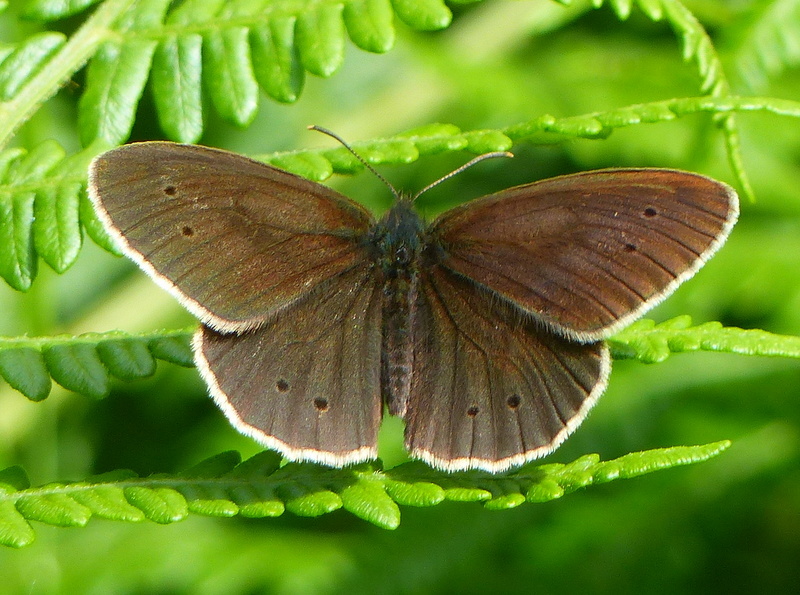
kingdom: Animalia
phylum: Arthropoda
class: Insecta
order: Lepidoptera
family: Nymphalidae
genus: Aphantopus
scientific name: Aphantopus hyperantus
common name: Ringlet
